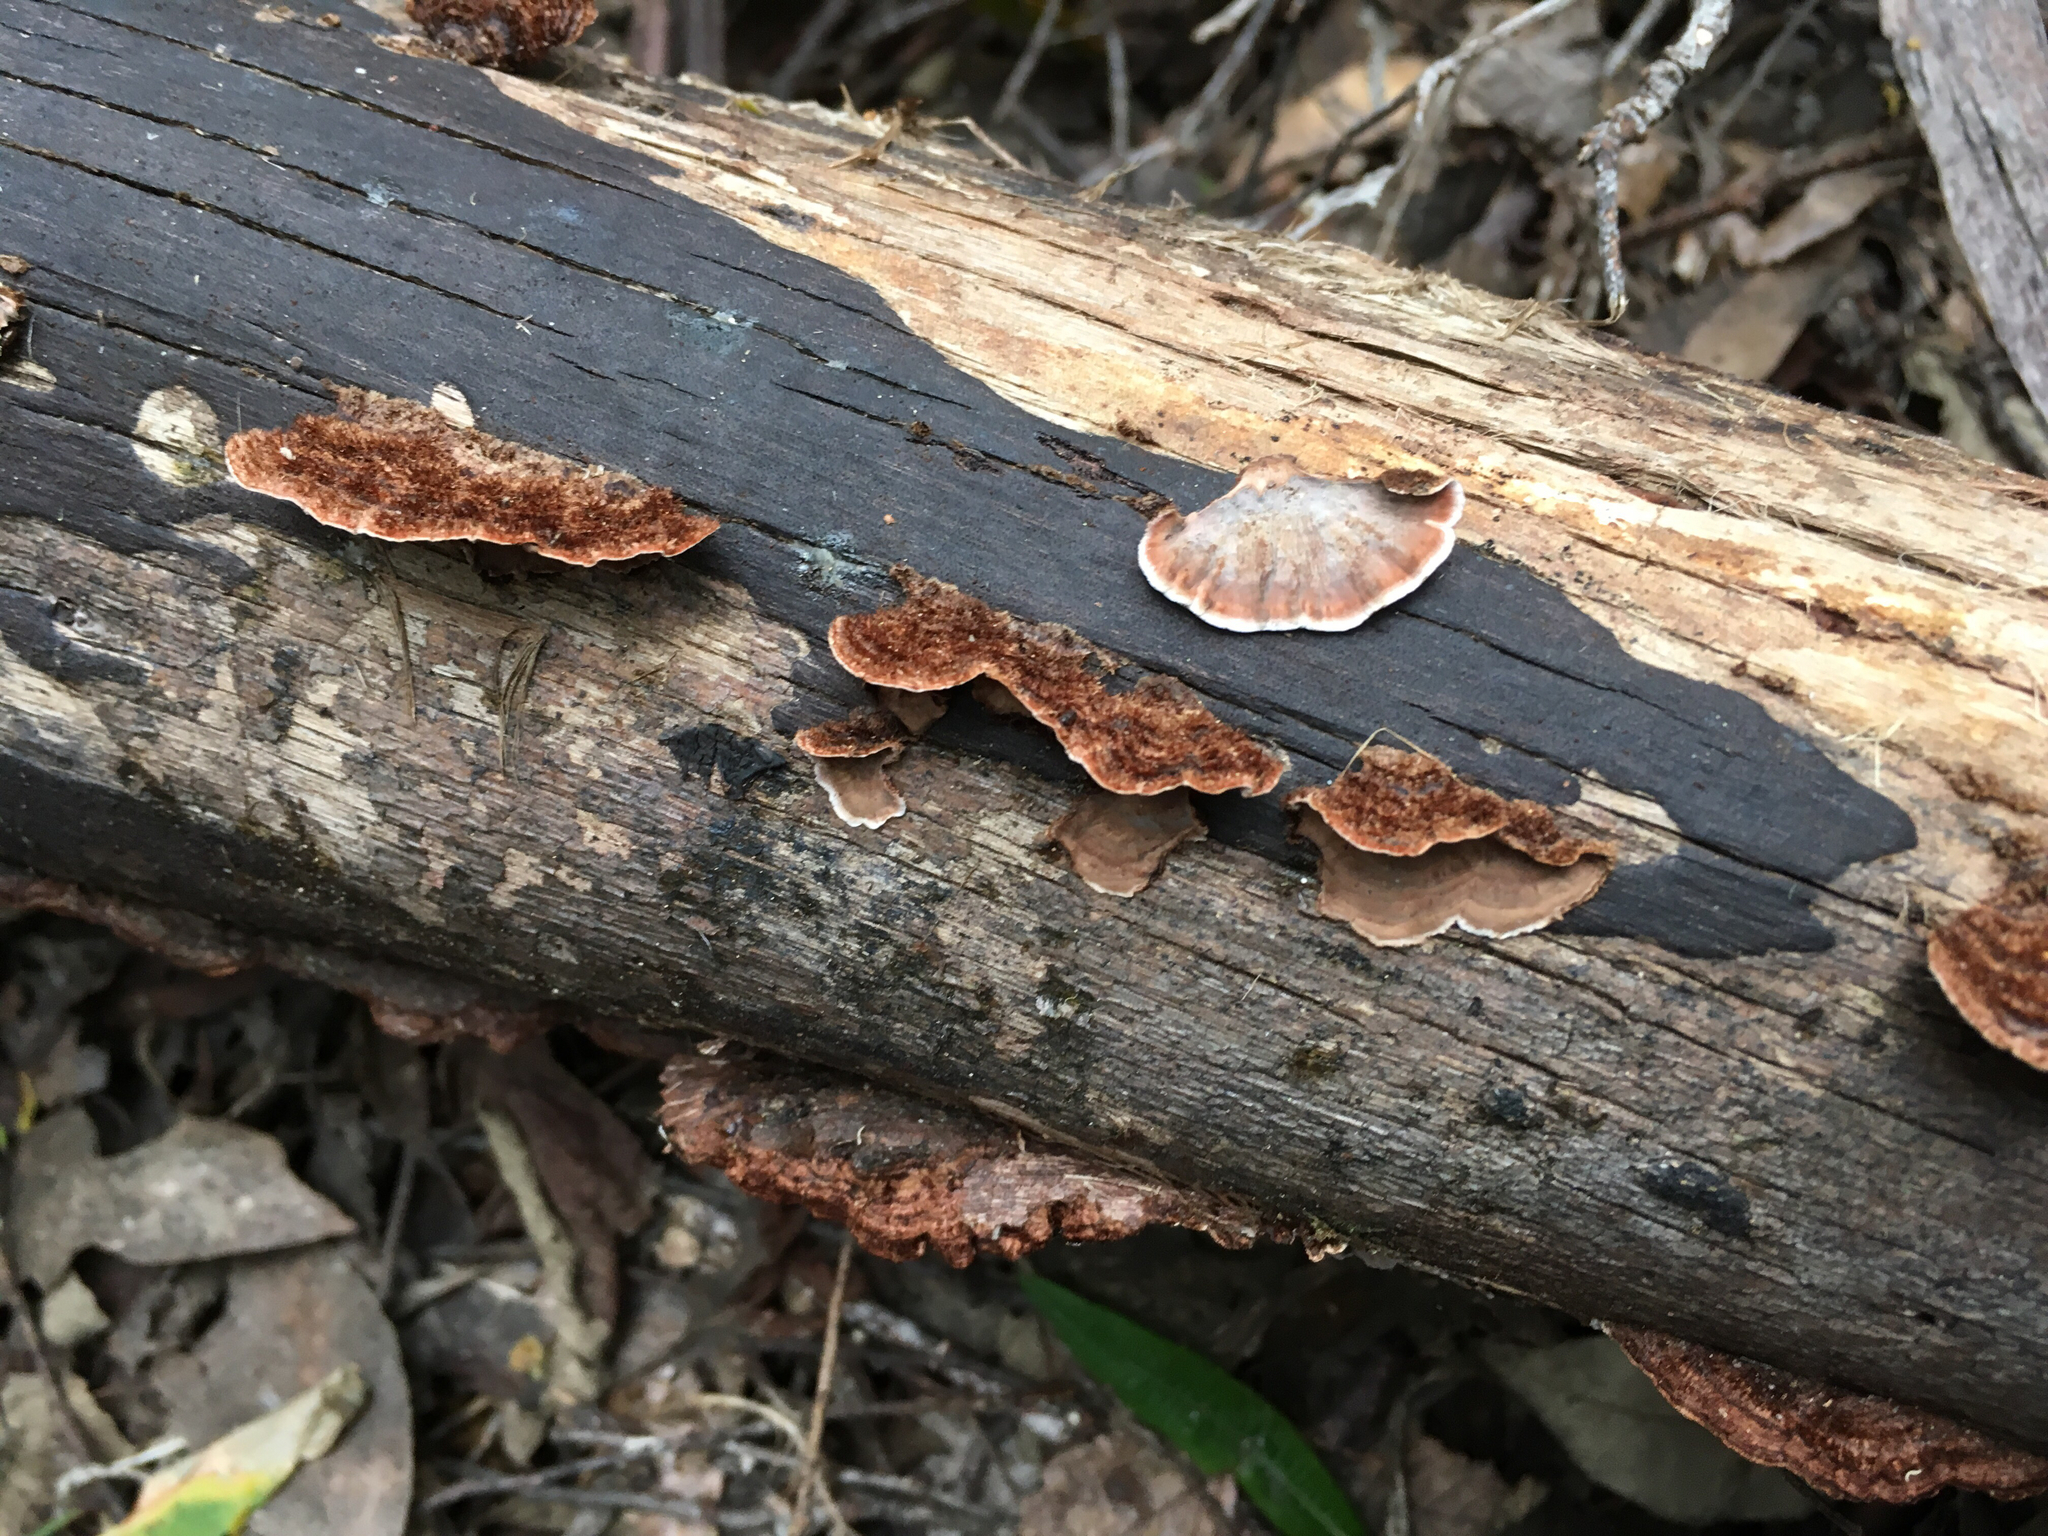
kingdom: Fungi
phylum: Basidiomycota
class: Agaricomycetes
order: Russulales
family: Stereaceae
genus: Xylobolus
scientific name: Xylobolus illudens
